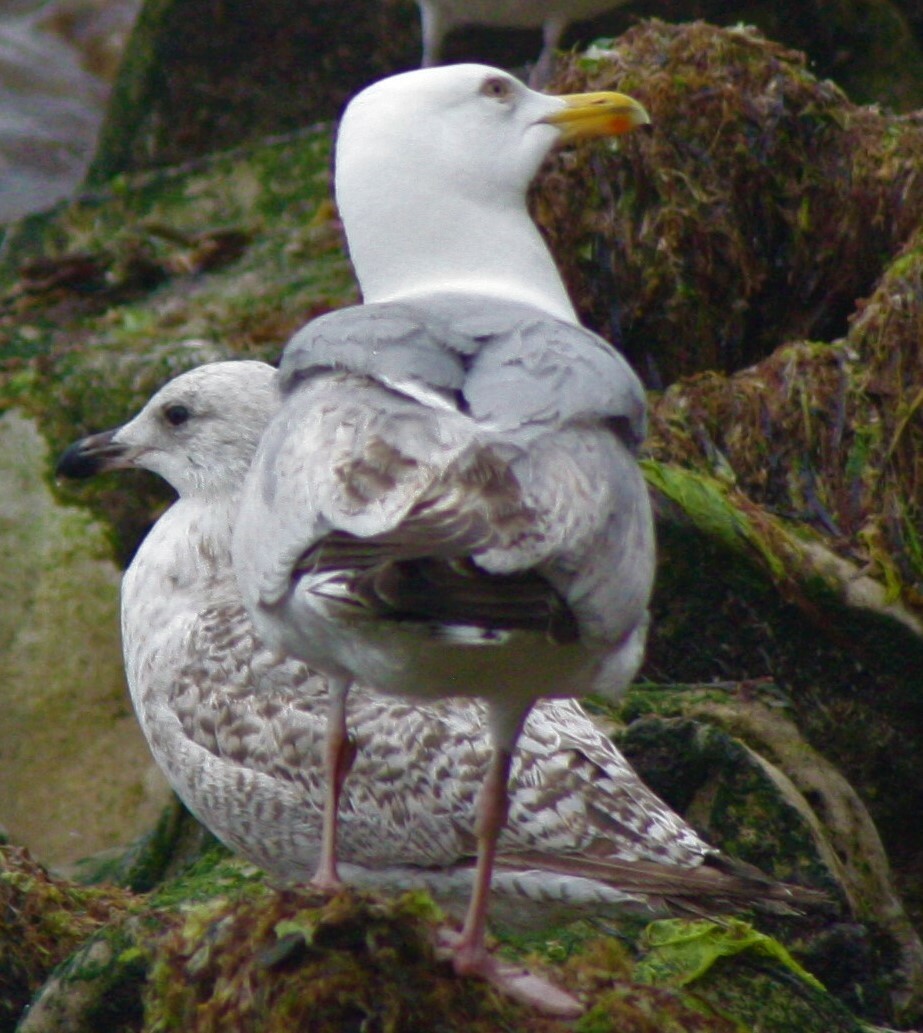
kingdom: Animalia
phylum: Chordata
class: Aves
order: Charadriiformes
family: Laridae
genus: Larus
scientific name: Larus argentatus
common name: Herring gull
